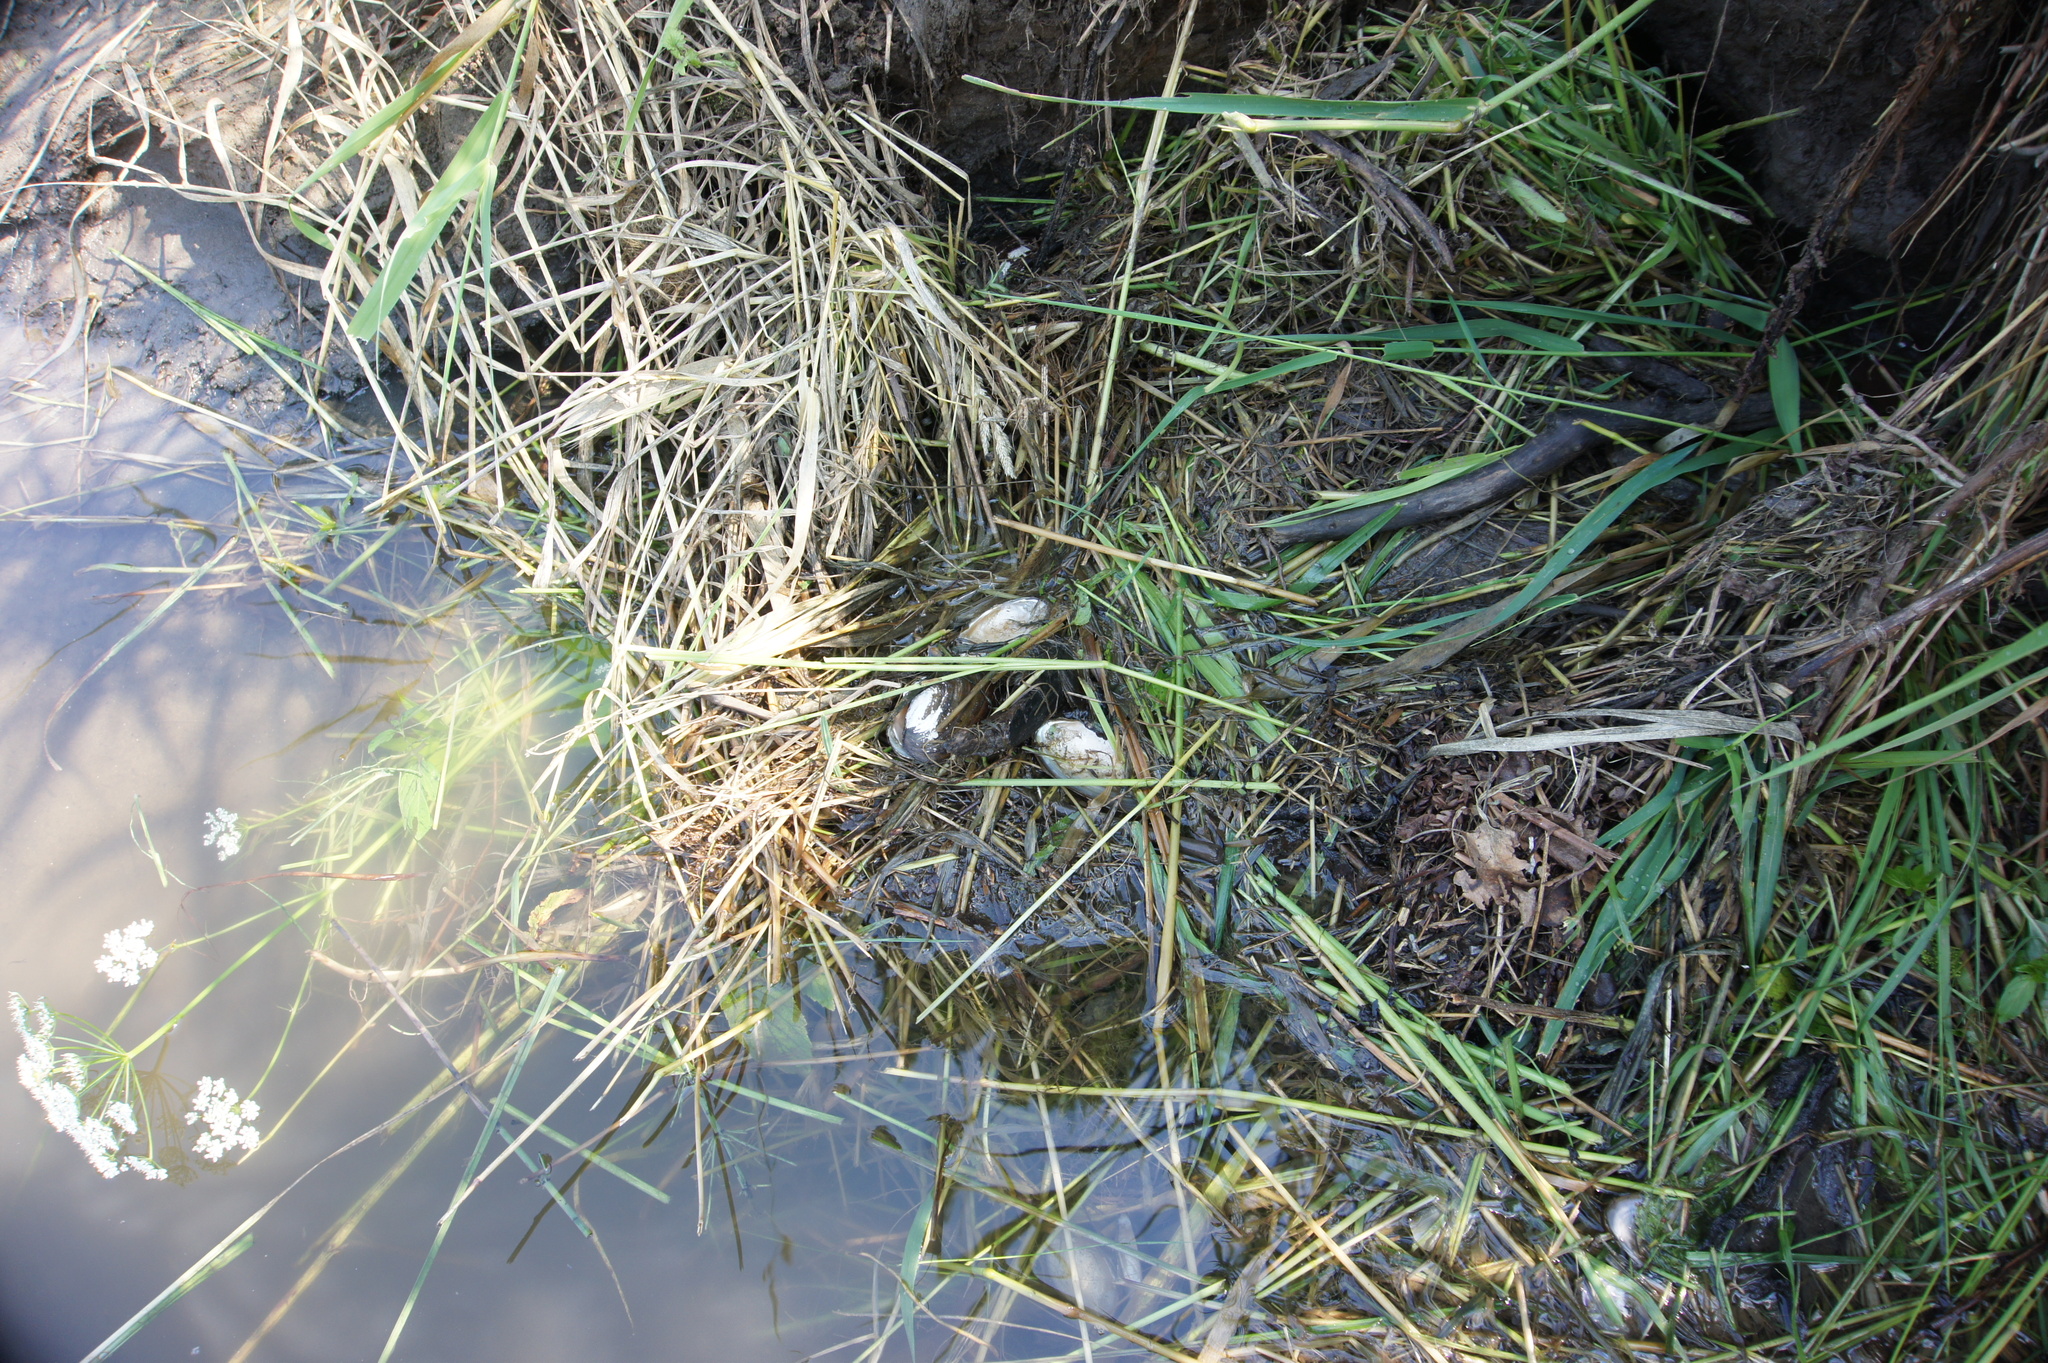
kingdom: Animalia
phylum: Chordata
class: Mammalia
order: Rodentia
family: Cricetidae
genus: Ondatra
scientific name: Ondatra zibethicus
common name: Muskrat
